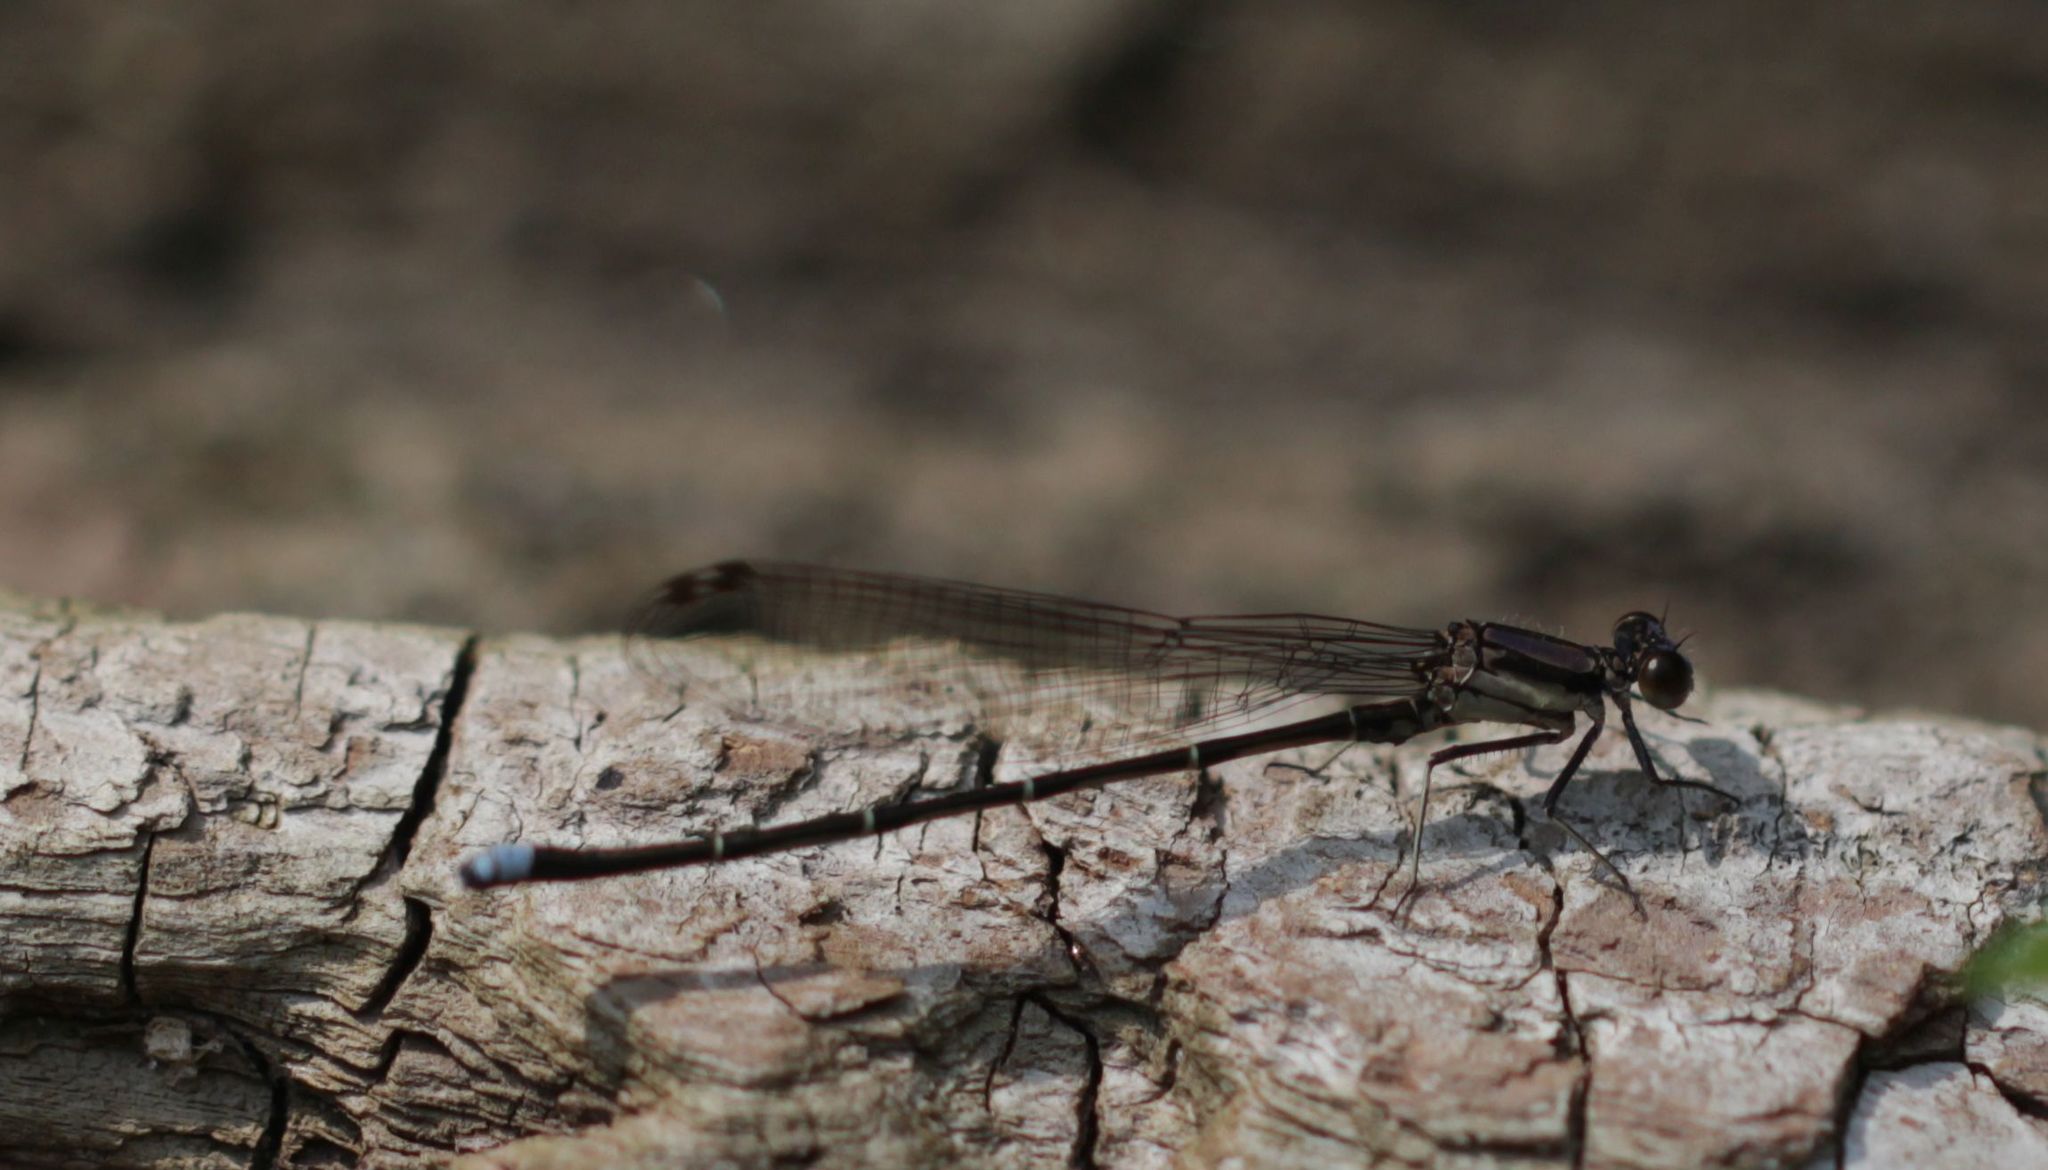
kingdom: Animalia
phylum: Arthropoda
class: Insecta
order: Odonata
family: Coenagrionidae
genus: Argia
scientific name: Argia tibialis
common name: Blue-tipped dancer
